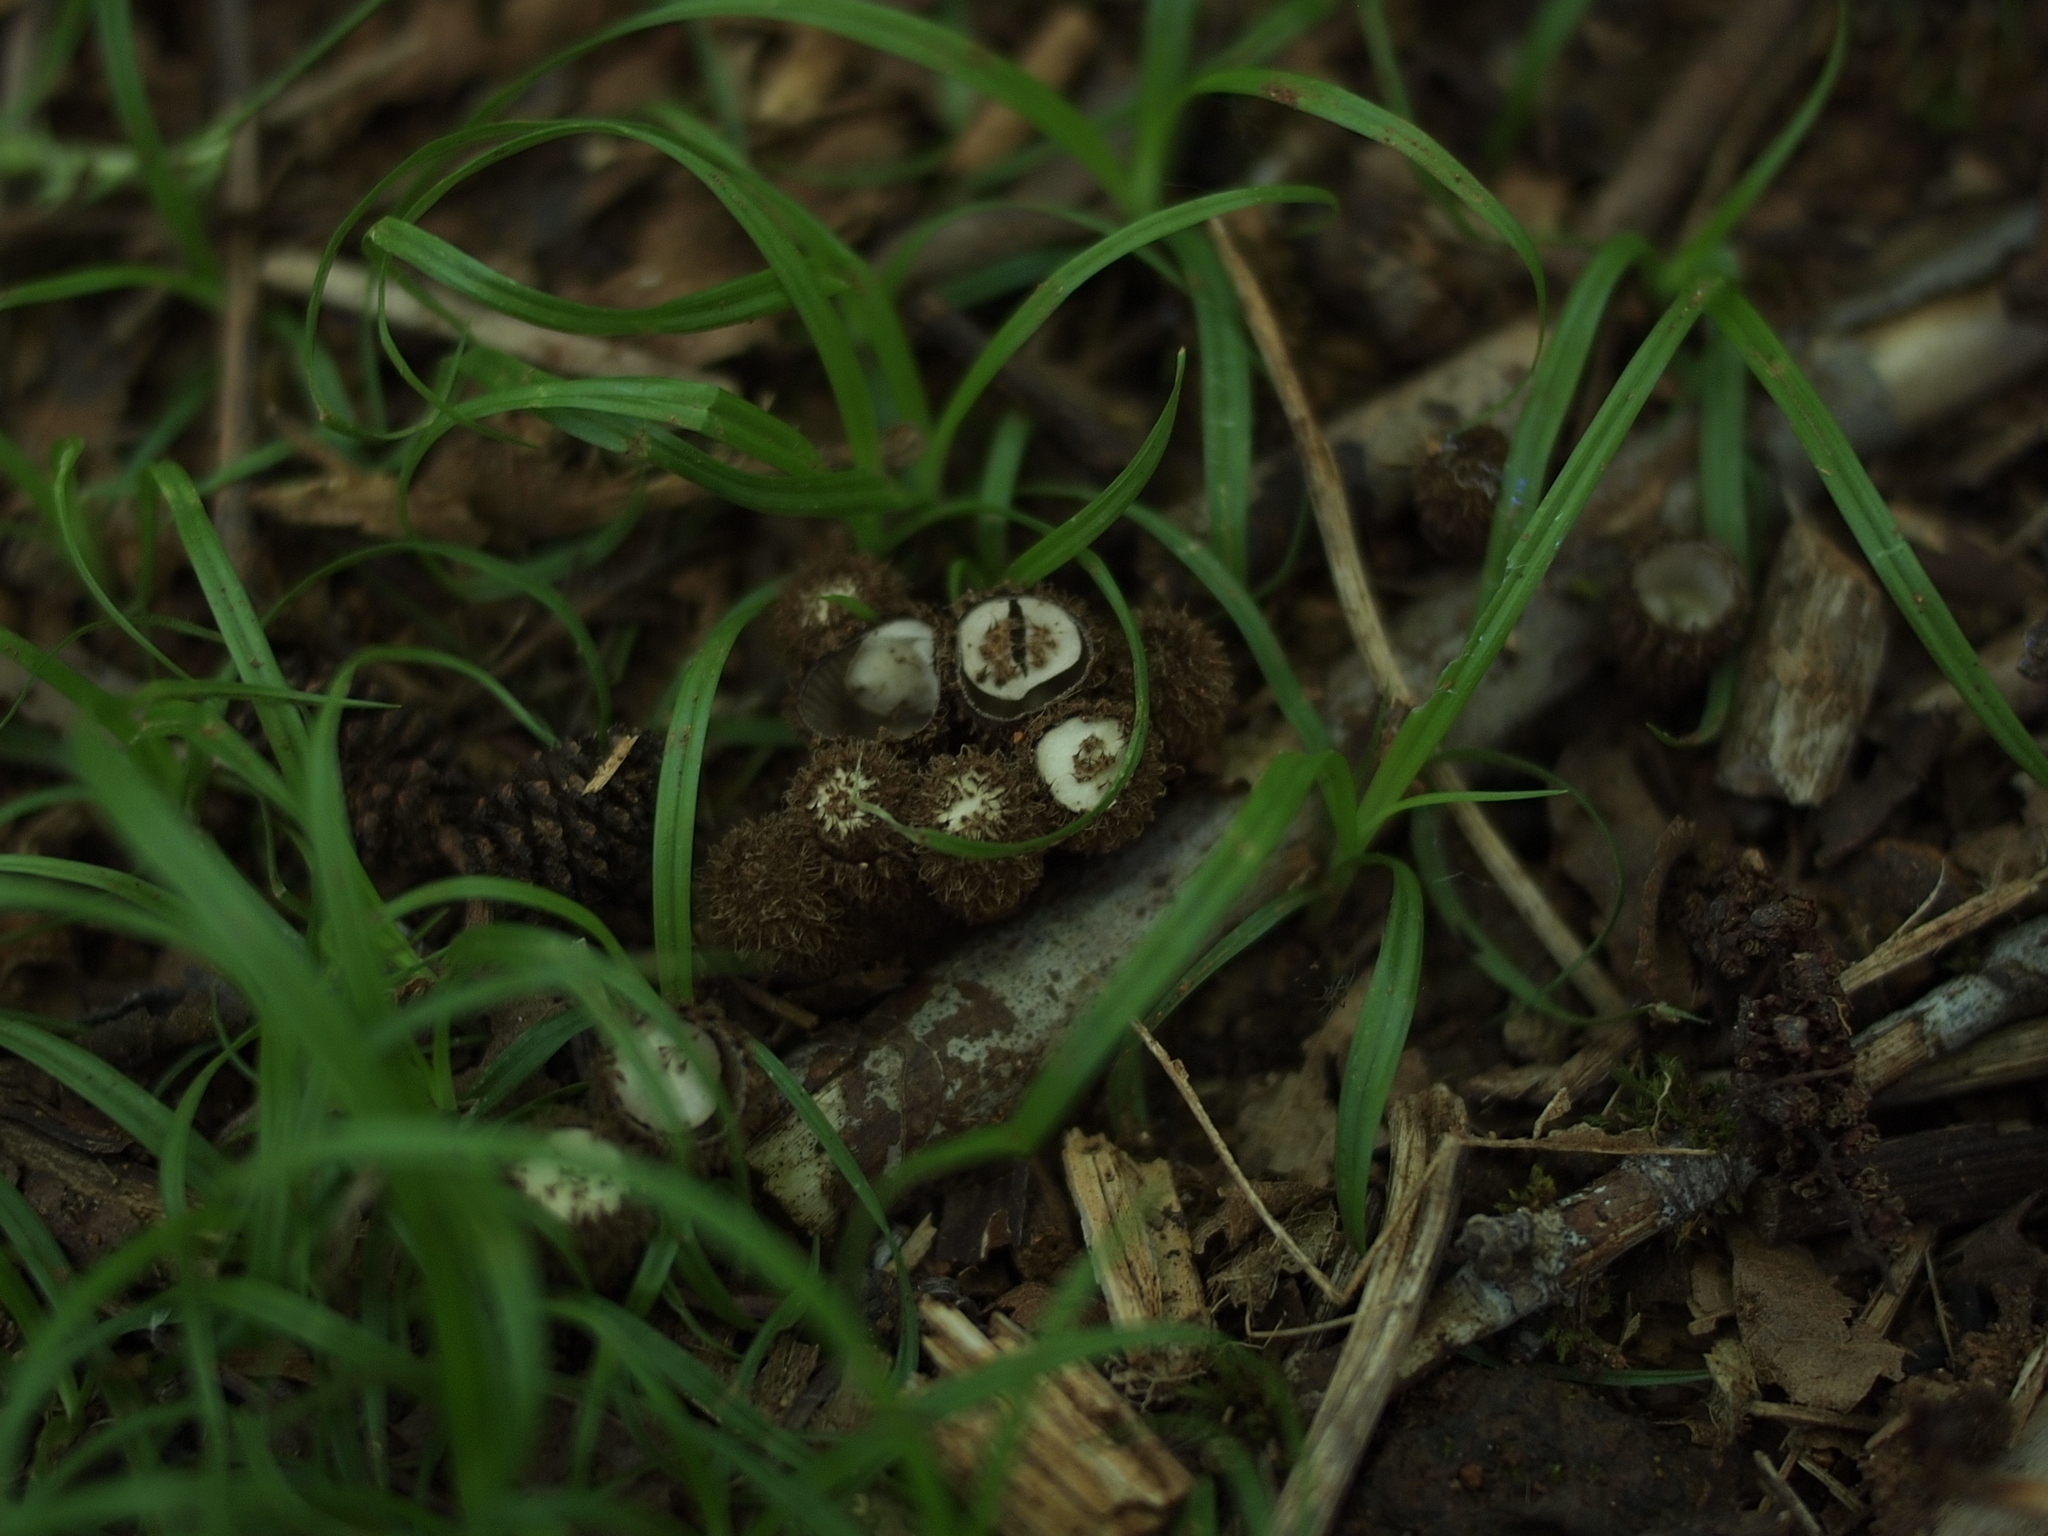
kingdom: Fungi
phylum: Basidiomycota
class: Agaricomycetes
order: Agaricales
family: Agaricaceae
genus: Cyathus
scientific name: Cyathus striatus
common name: Fluted bird's nest
